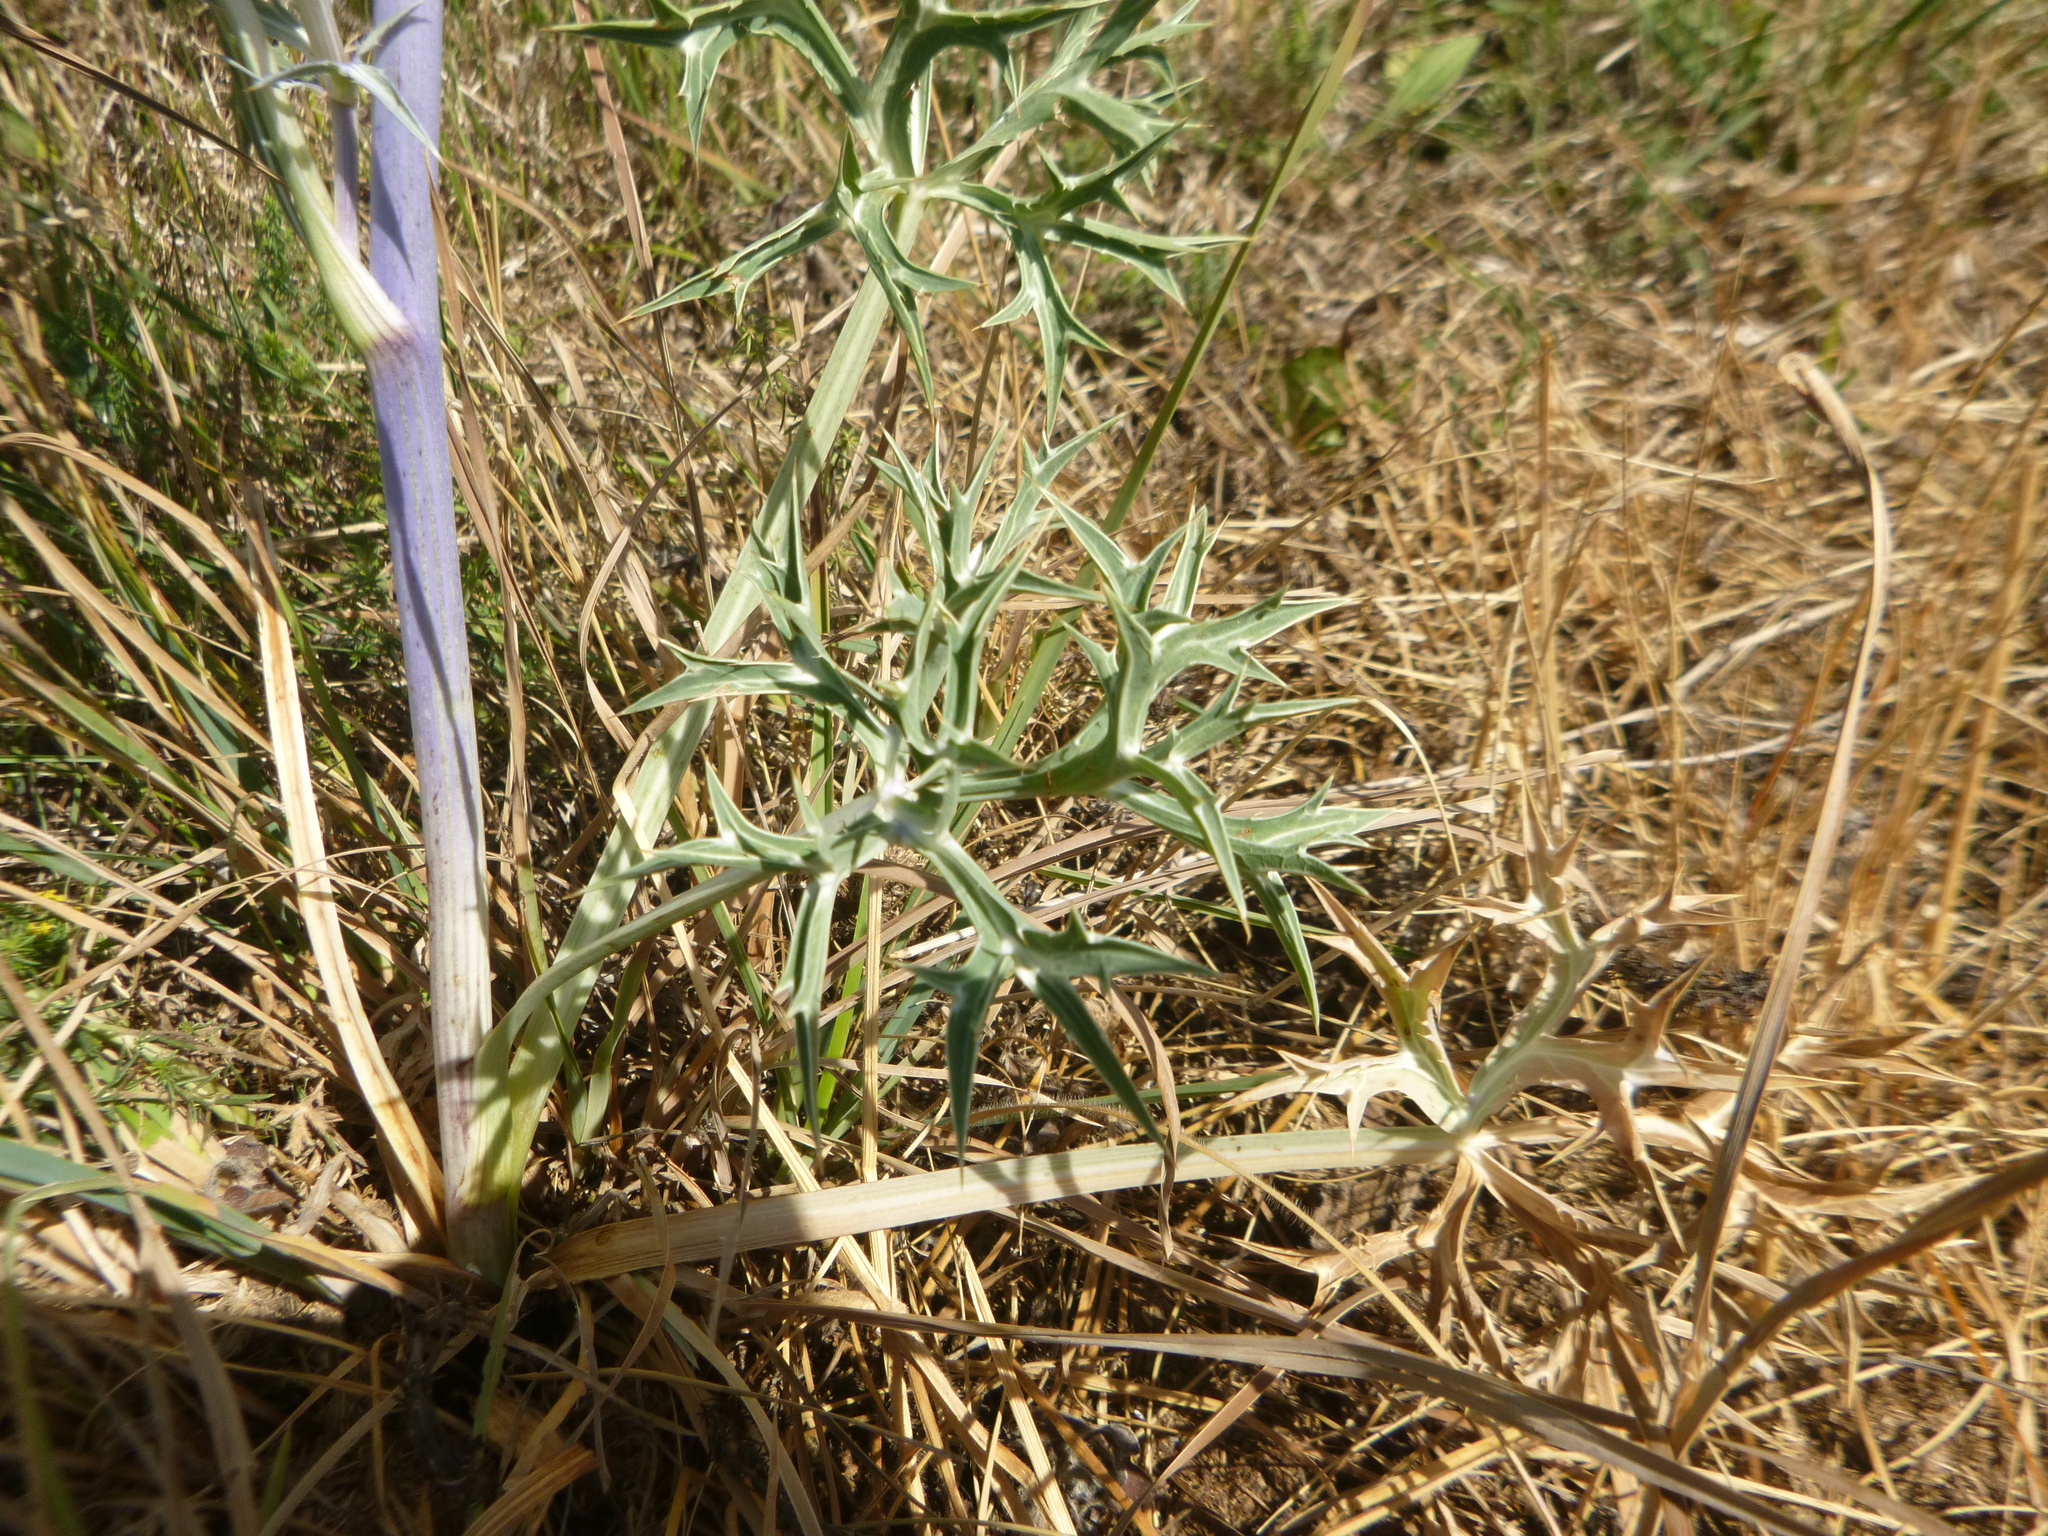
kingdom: Plantae
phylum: Tracheophyta
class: Magnoliopsida
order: Apiales
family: Apiaceae
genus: Eryngium
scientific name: Eryngium bourgatii
